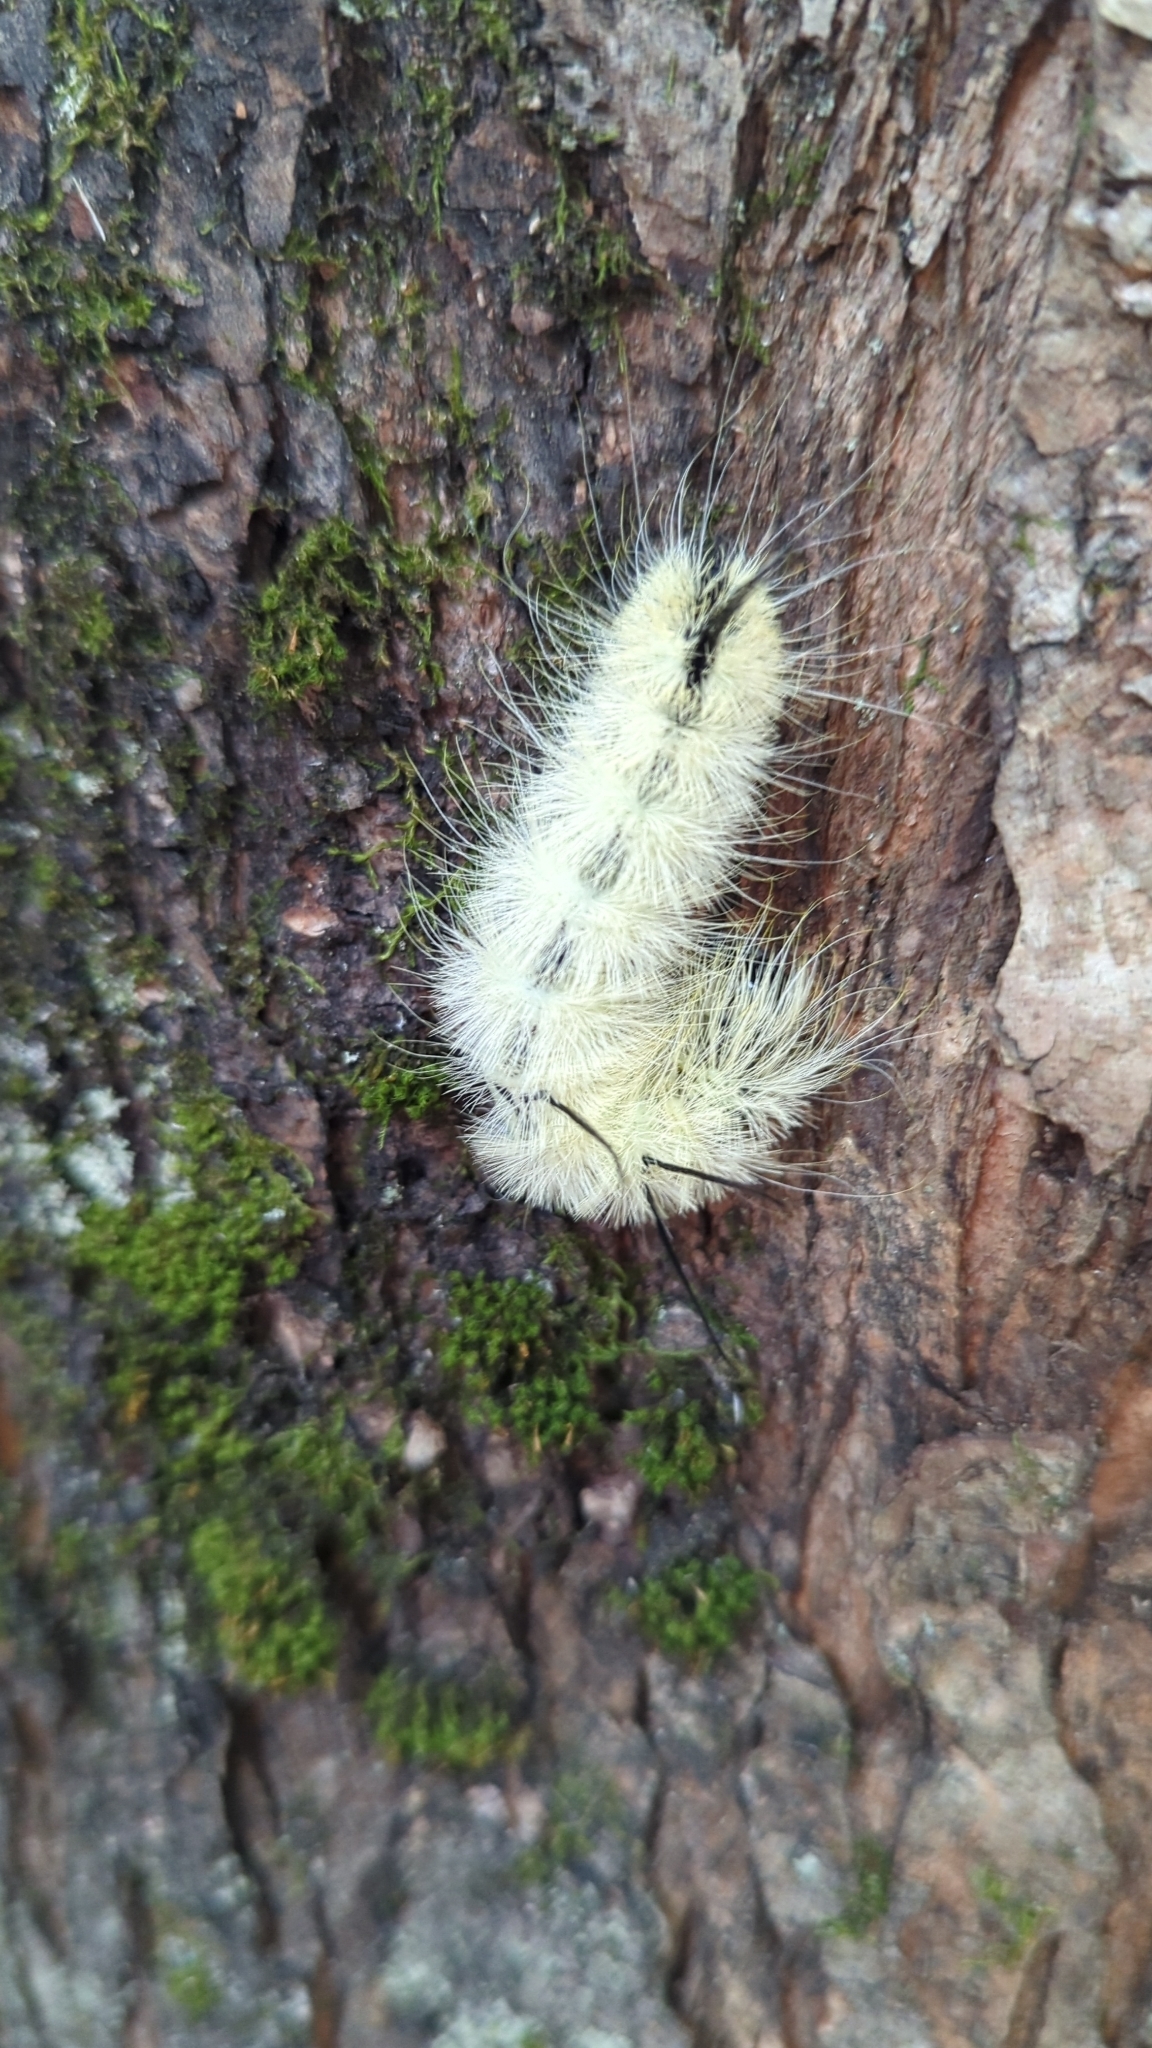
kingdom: Animalia
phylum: Arthropoda
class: Insecta
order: Lepidoptera
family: Noctuidae
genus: Acronicta
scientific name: Acronicta americana
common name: American dagger
